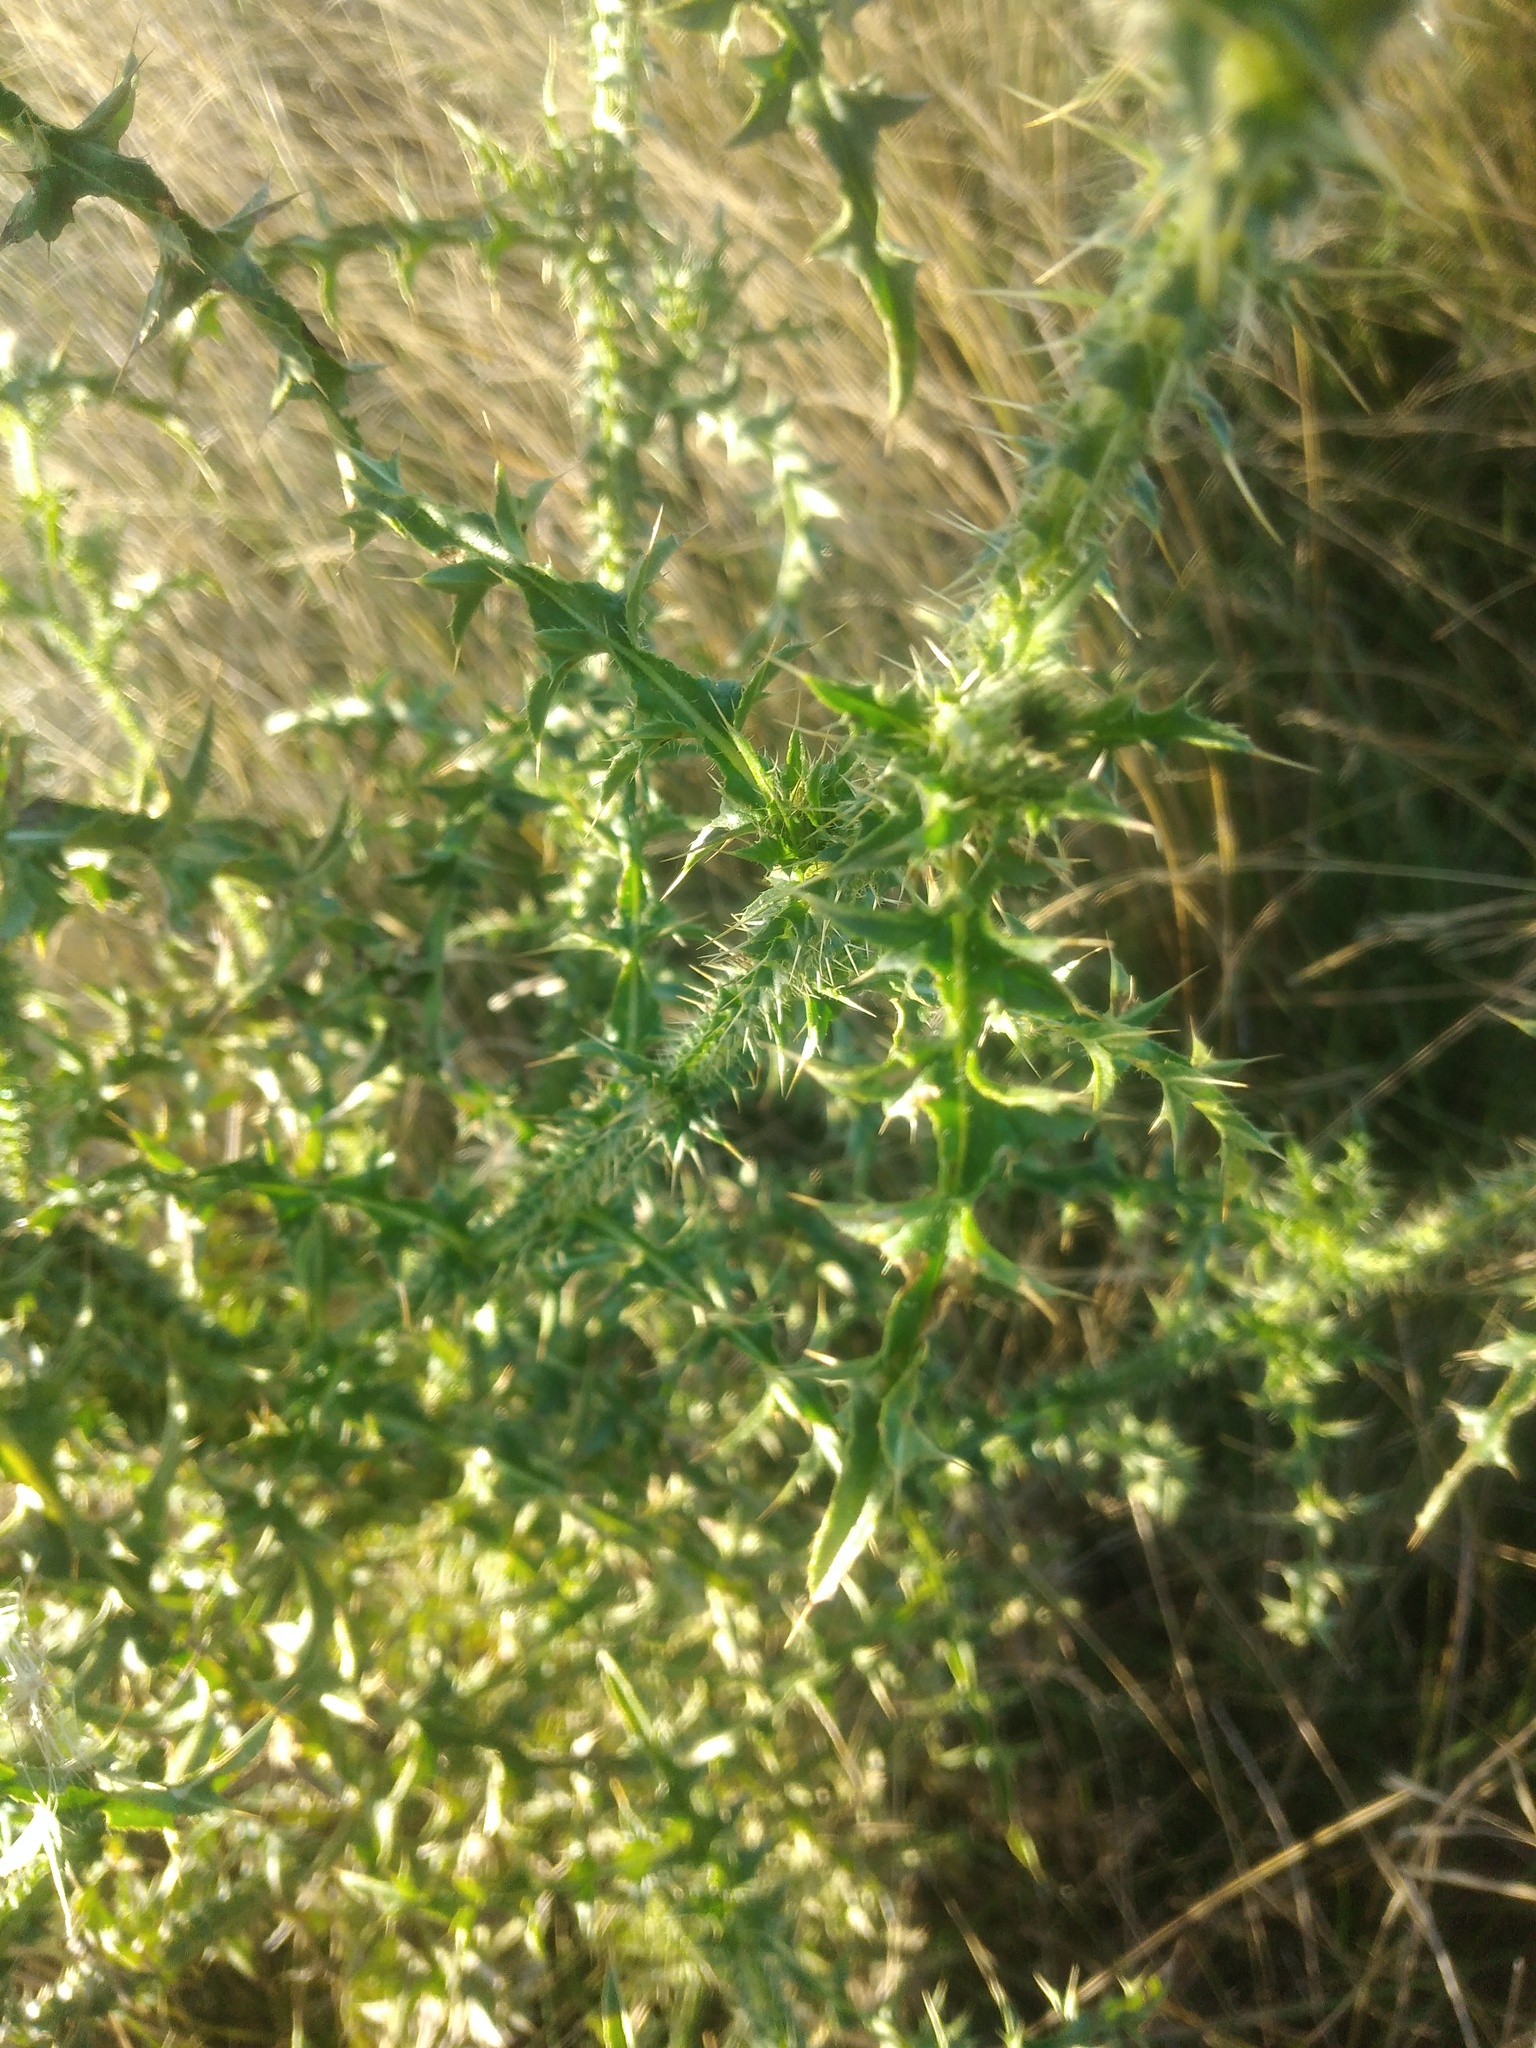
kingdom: Plantae
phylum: Tracheophyta
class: Magnoliopsida
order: Asterales
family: Asteraceae
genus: Carduus
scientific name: Carduus acanthoides
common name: Plumeless thistle
